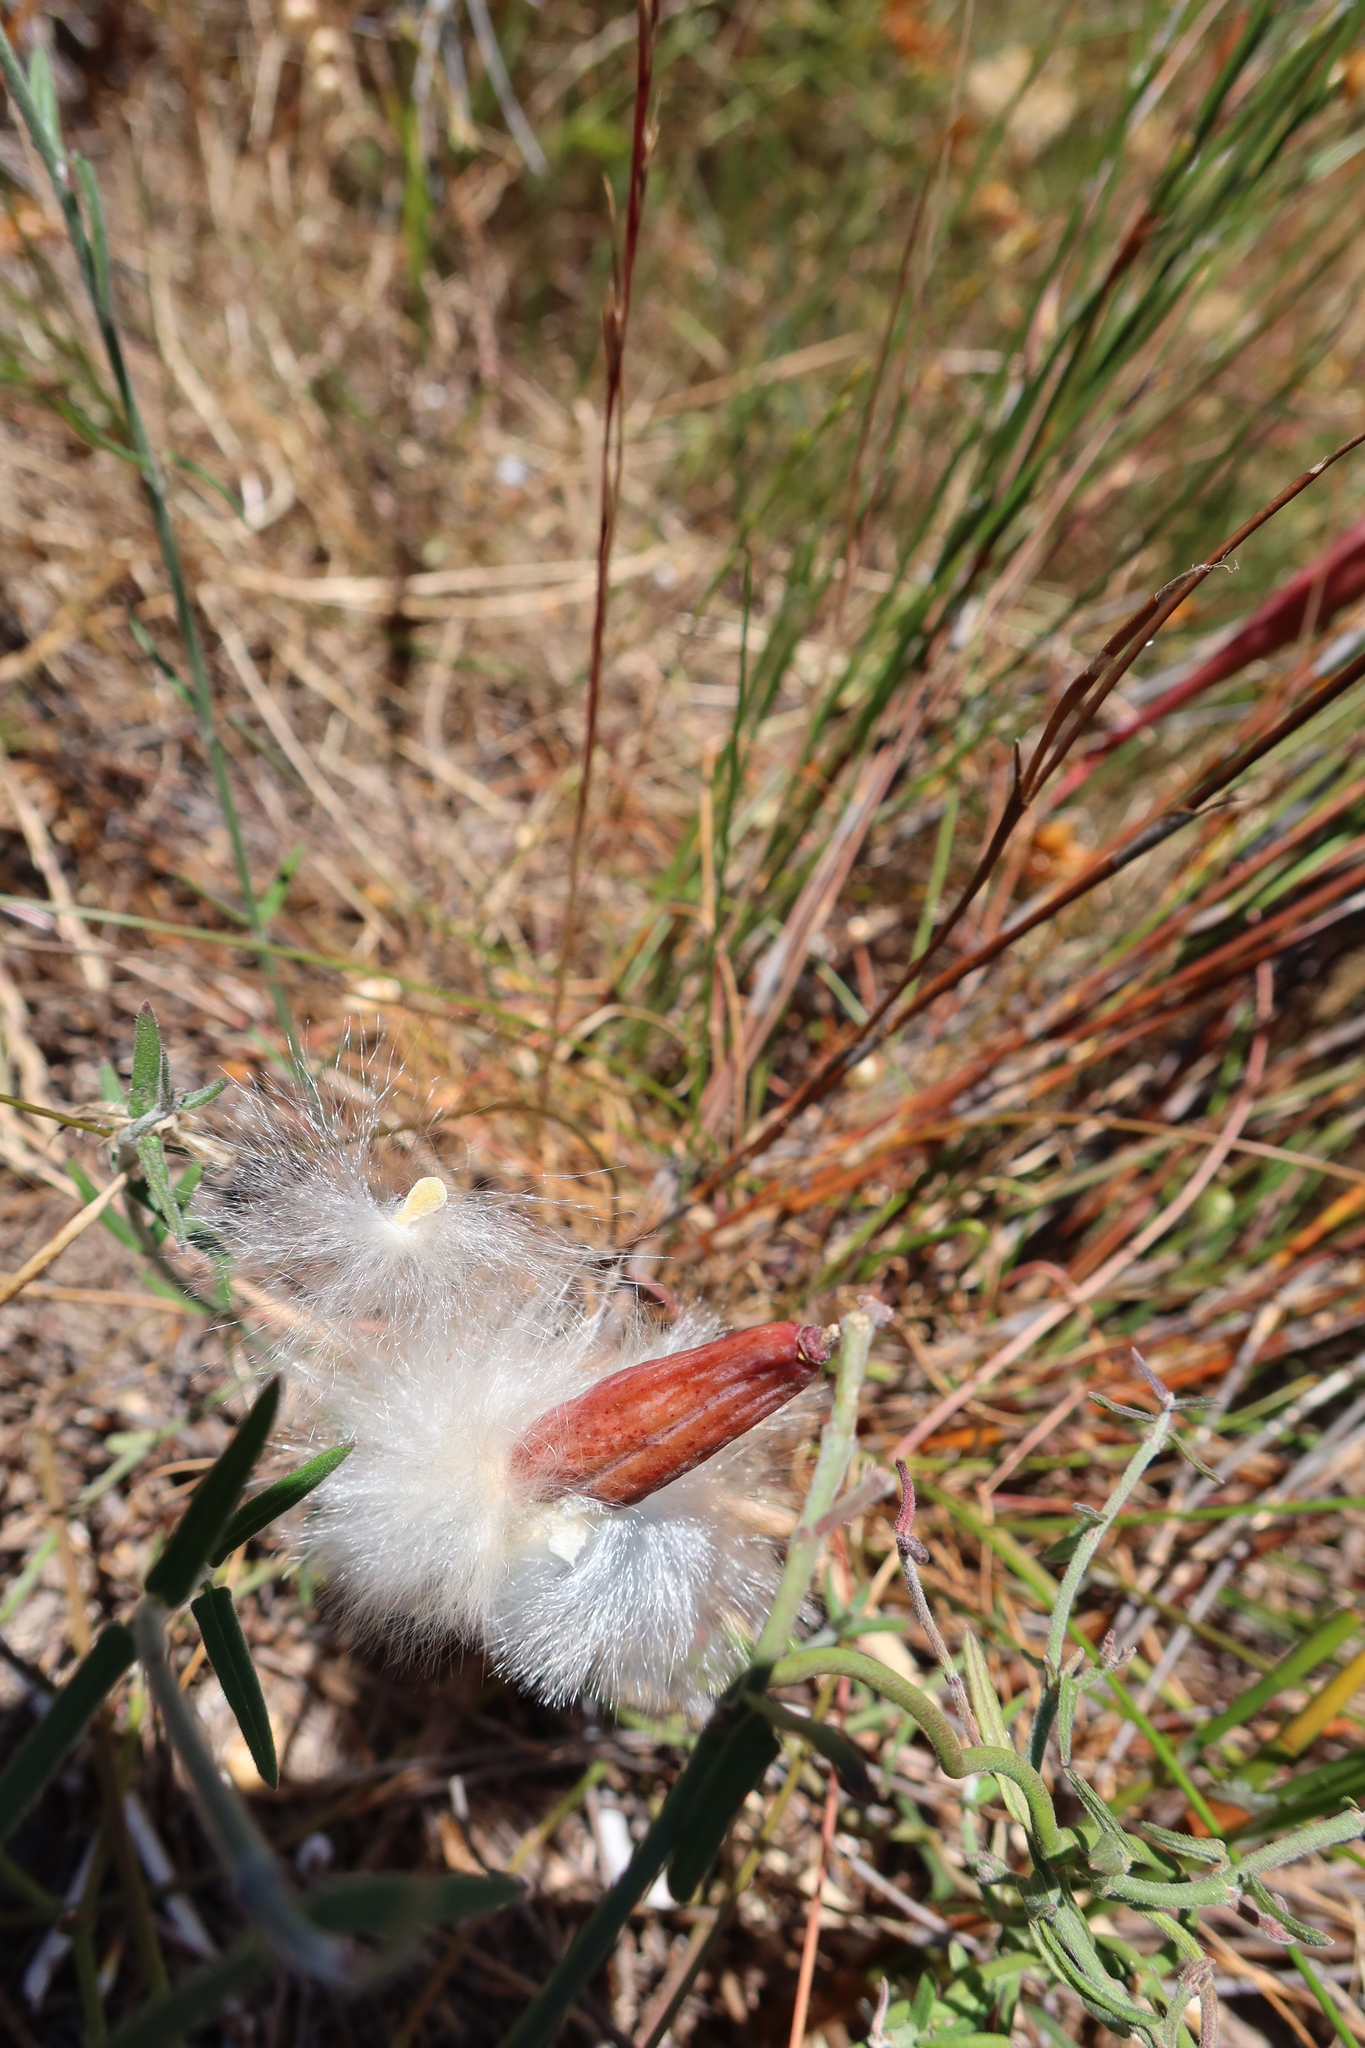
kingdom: Plantae
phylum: Tracheophyta
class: Magnoliopsida
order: Gentianales
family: Apocynaceae
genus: Microloma
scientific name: Microloma sagittatum
